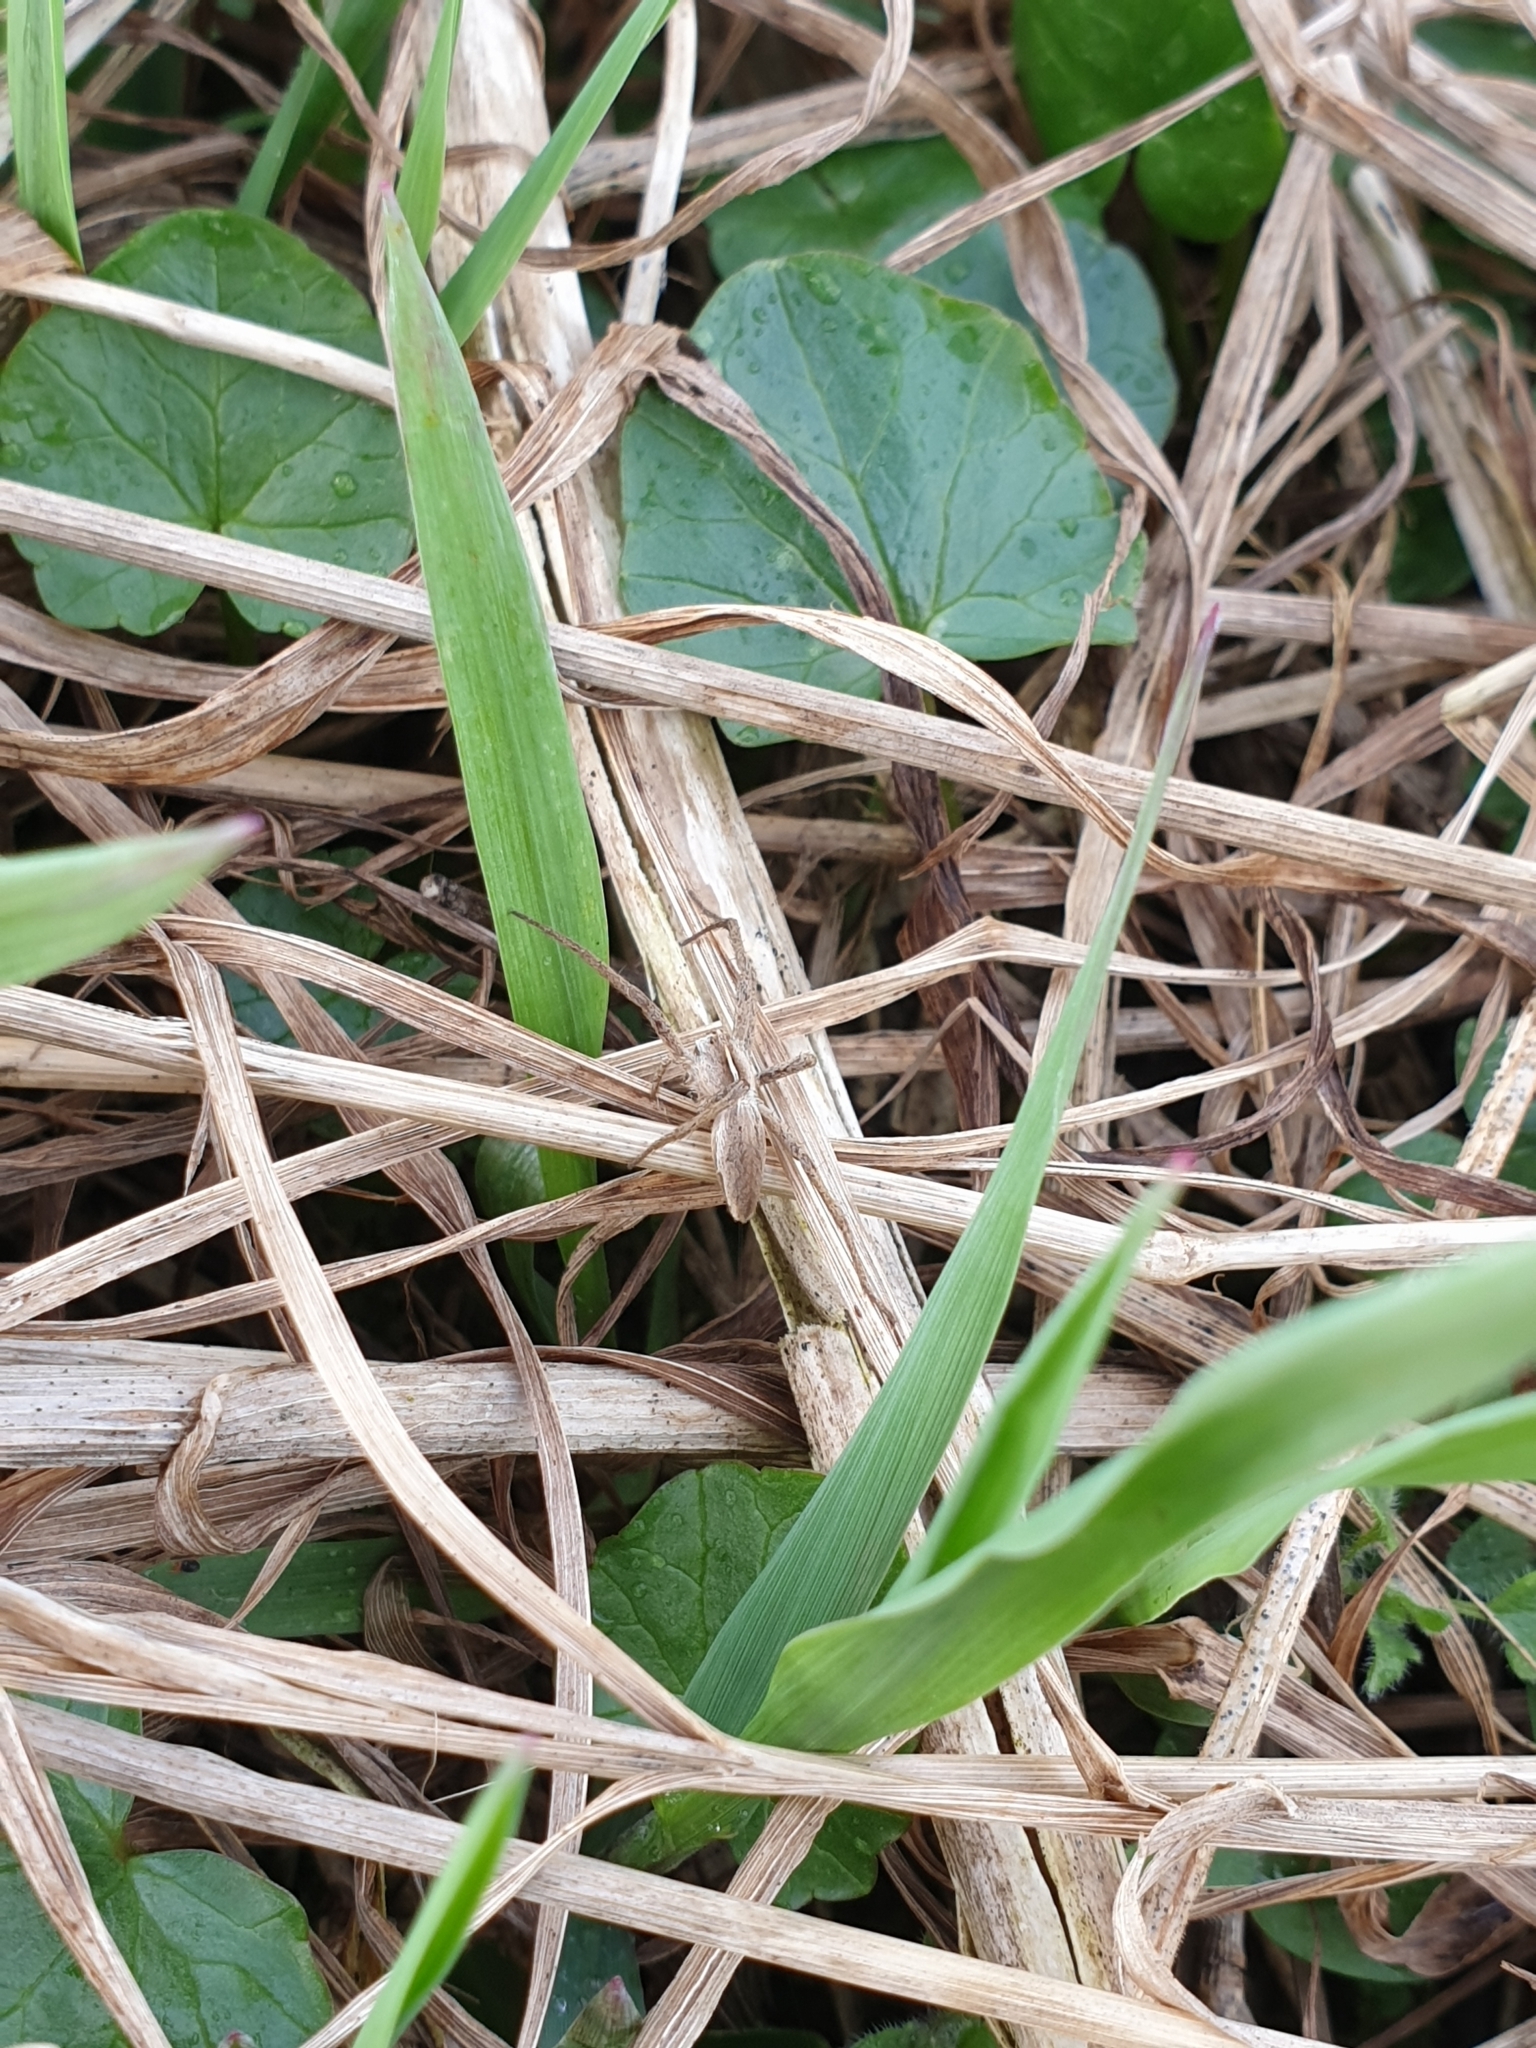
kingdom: Animalia
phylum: Arthropoda
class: Arachnida
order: Araneae
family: Pisauridae
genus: Pisaura
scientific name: Pisaura mirabilis
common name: Tent spider
